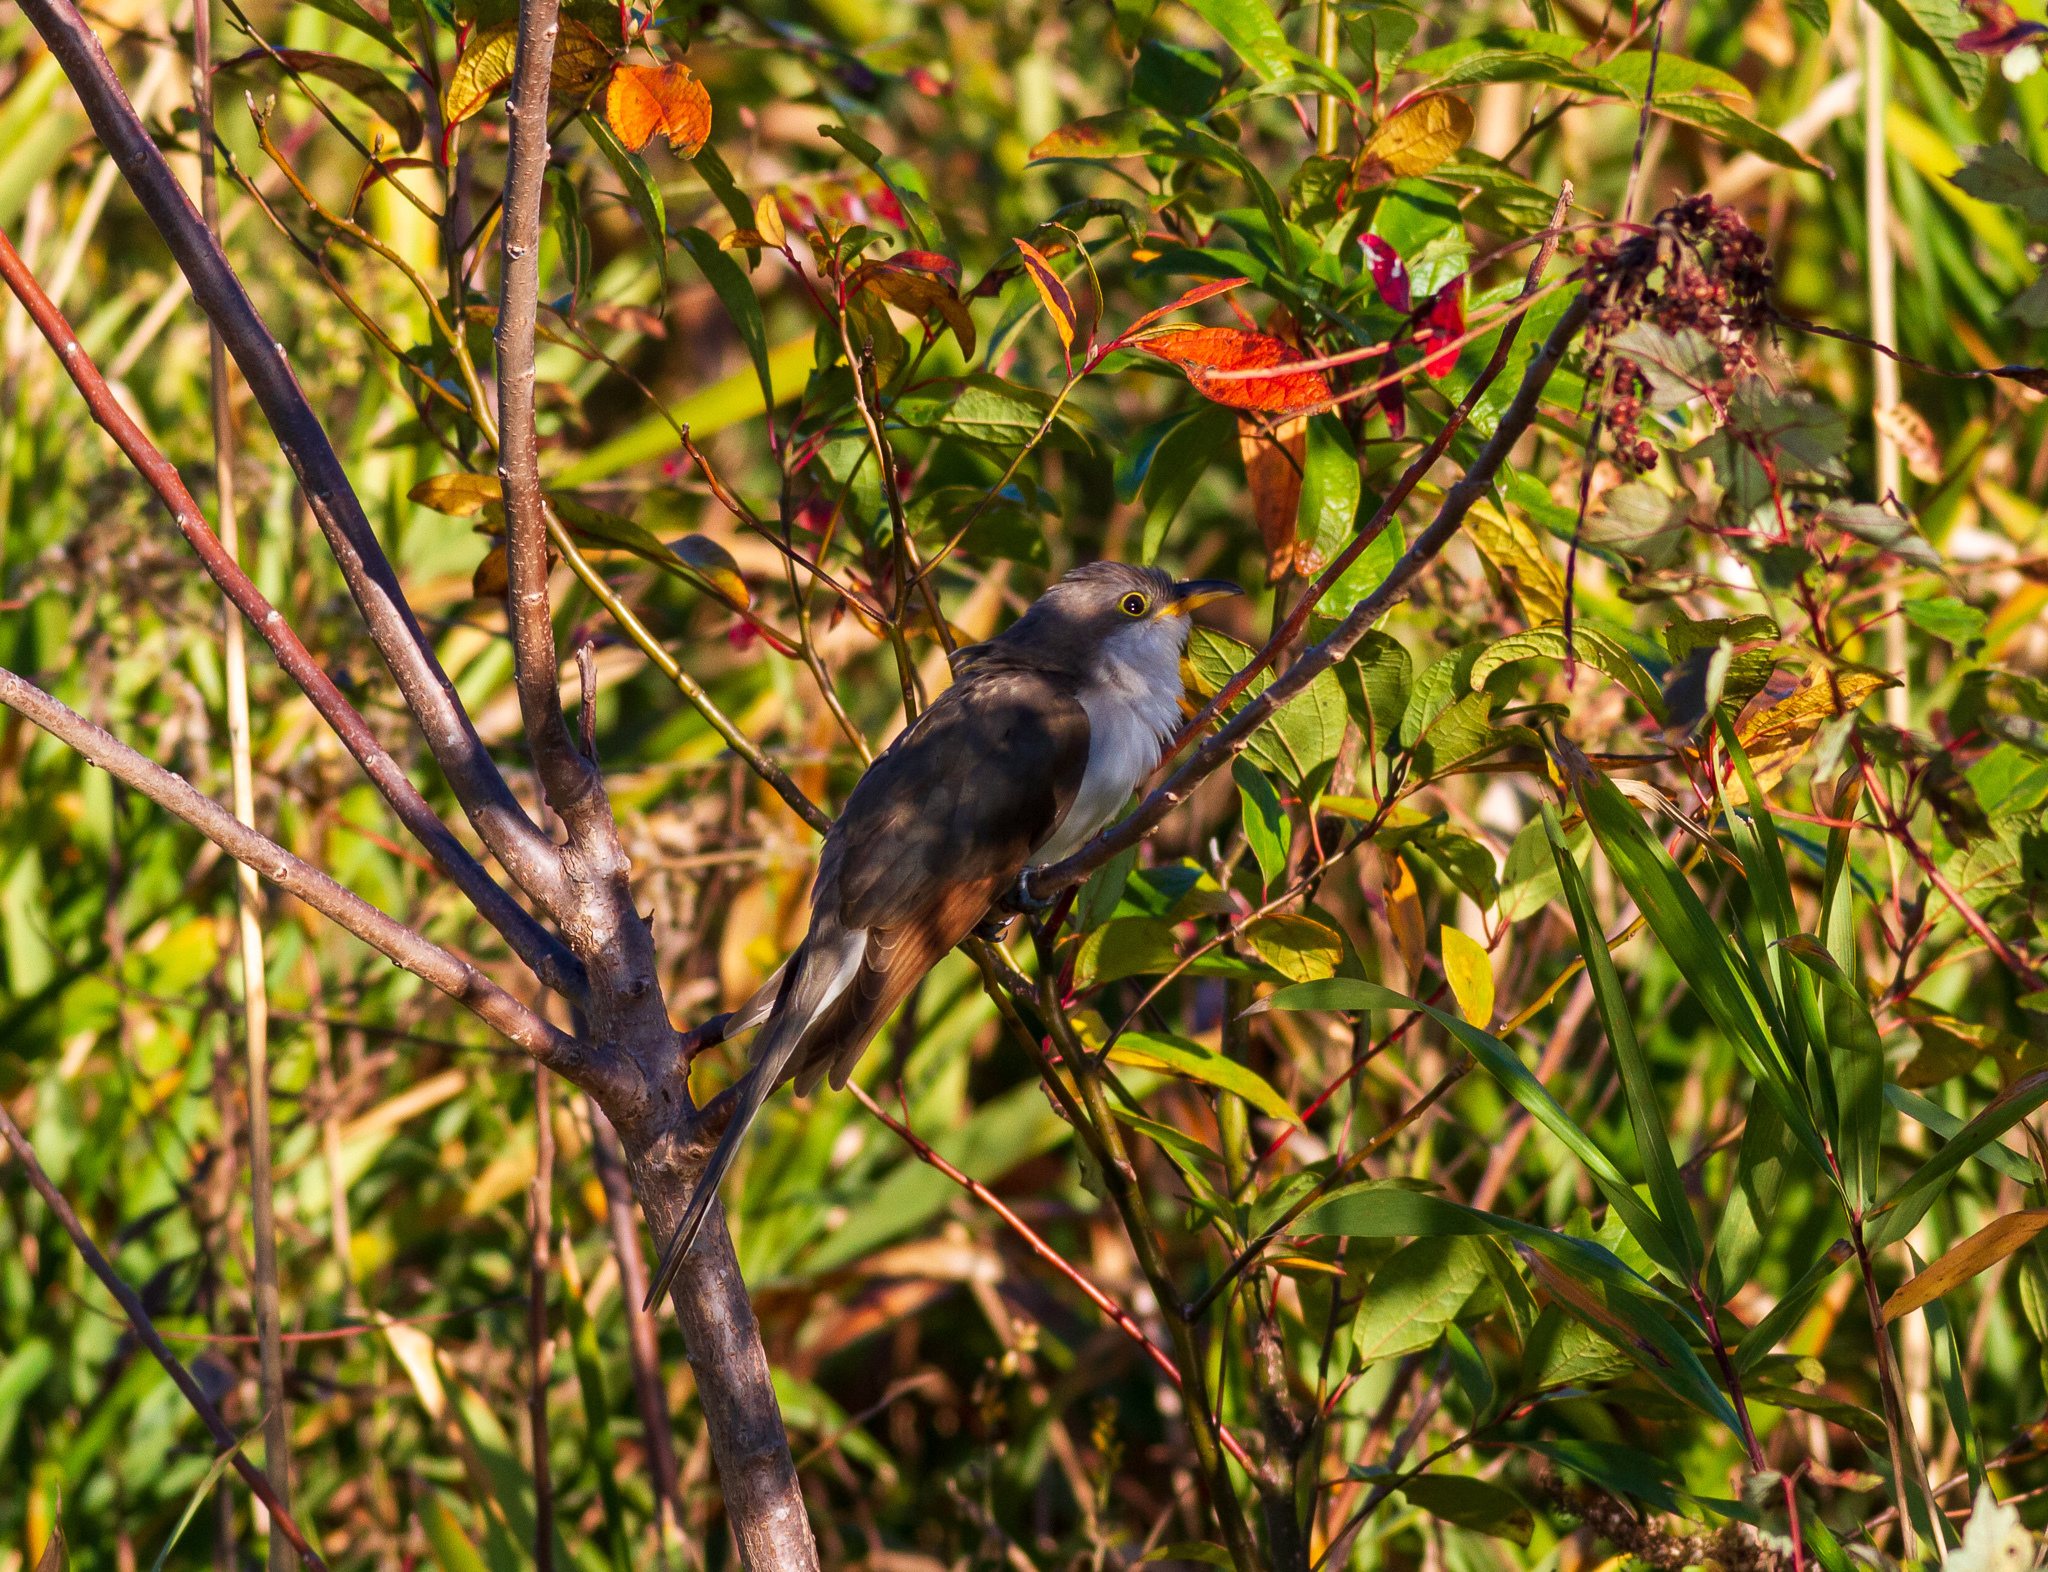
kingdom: Animalia
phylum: Chordata
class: Aves
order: Cuculiformes
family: Cuculidae
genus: Coccyzus
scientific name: Coccyzus americanus
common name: Yellow-billed cuckoo
